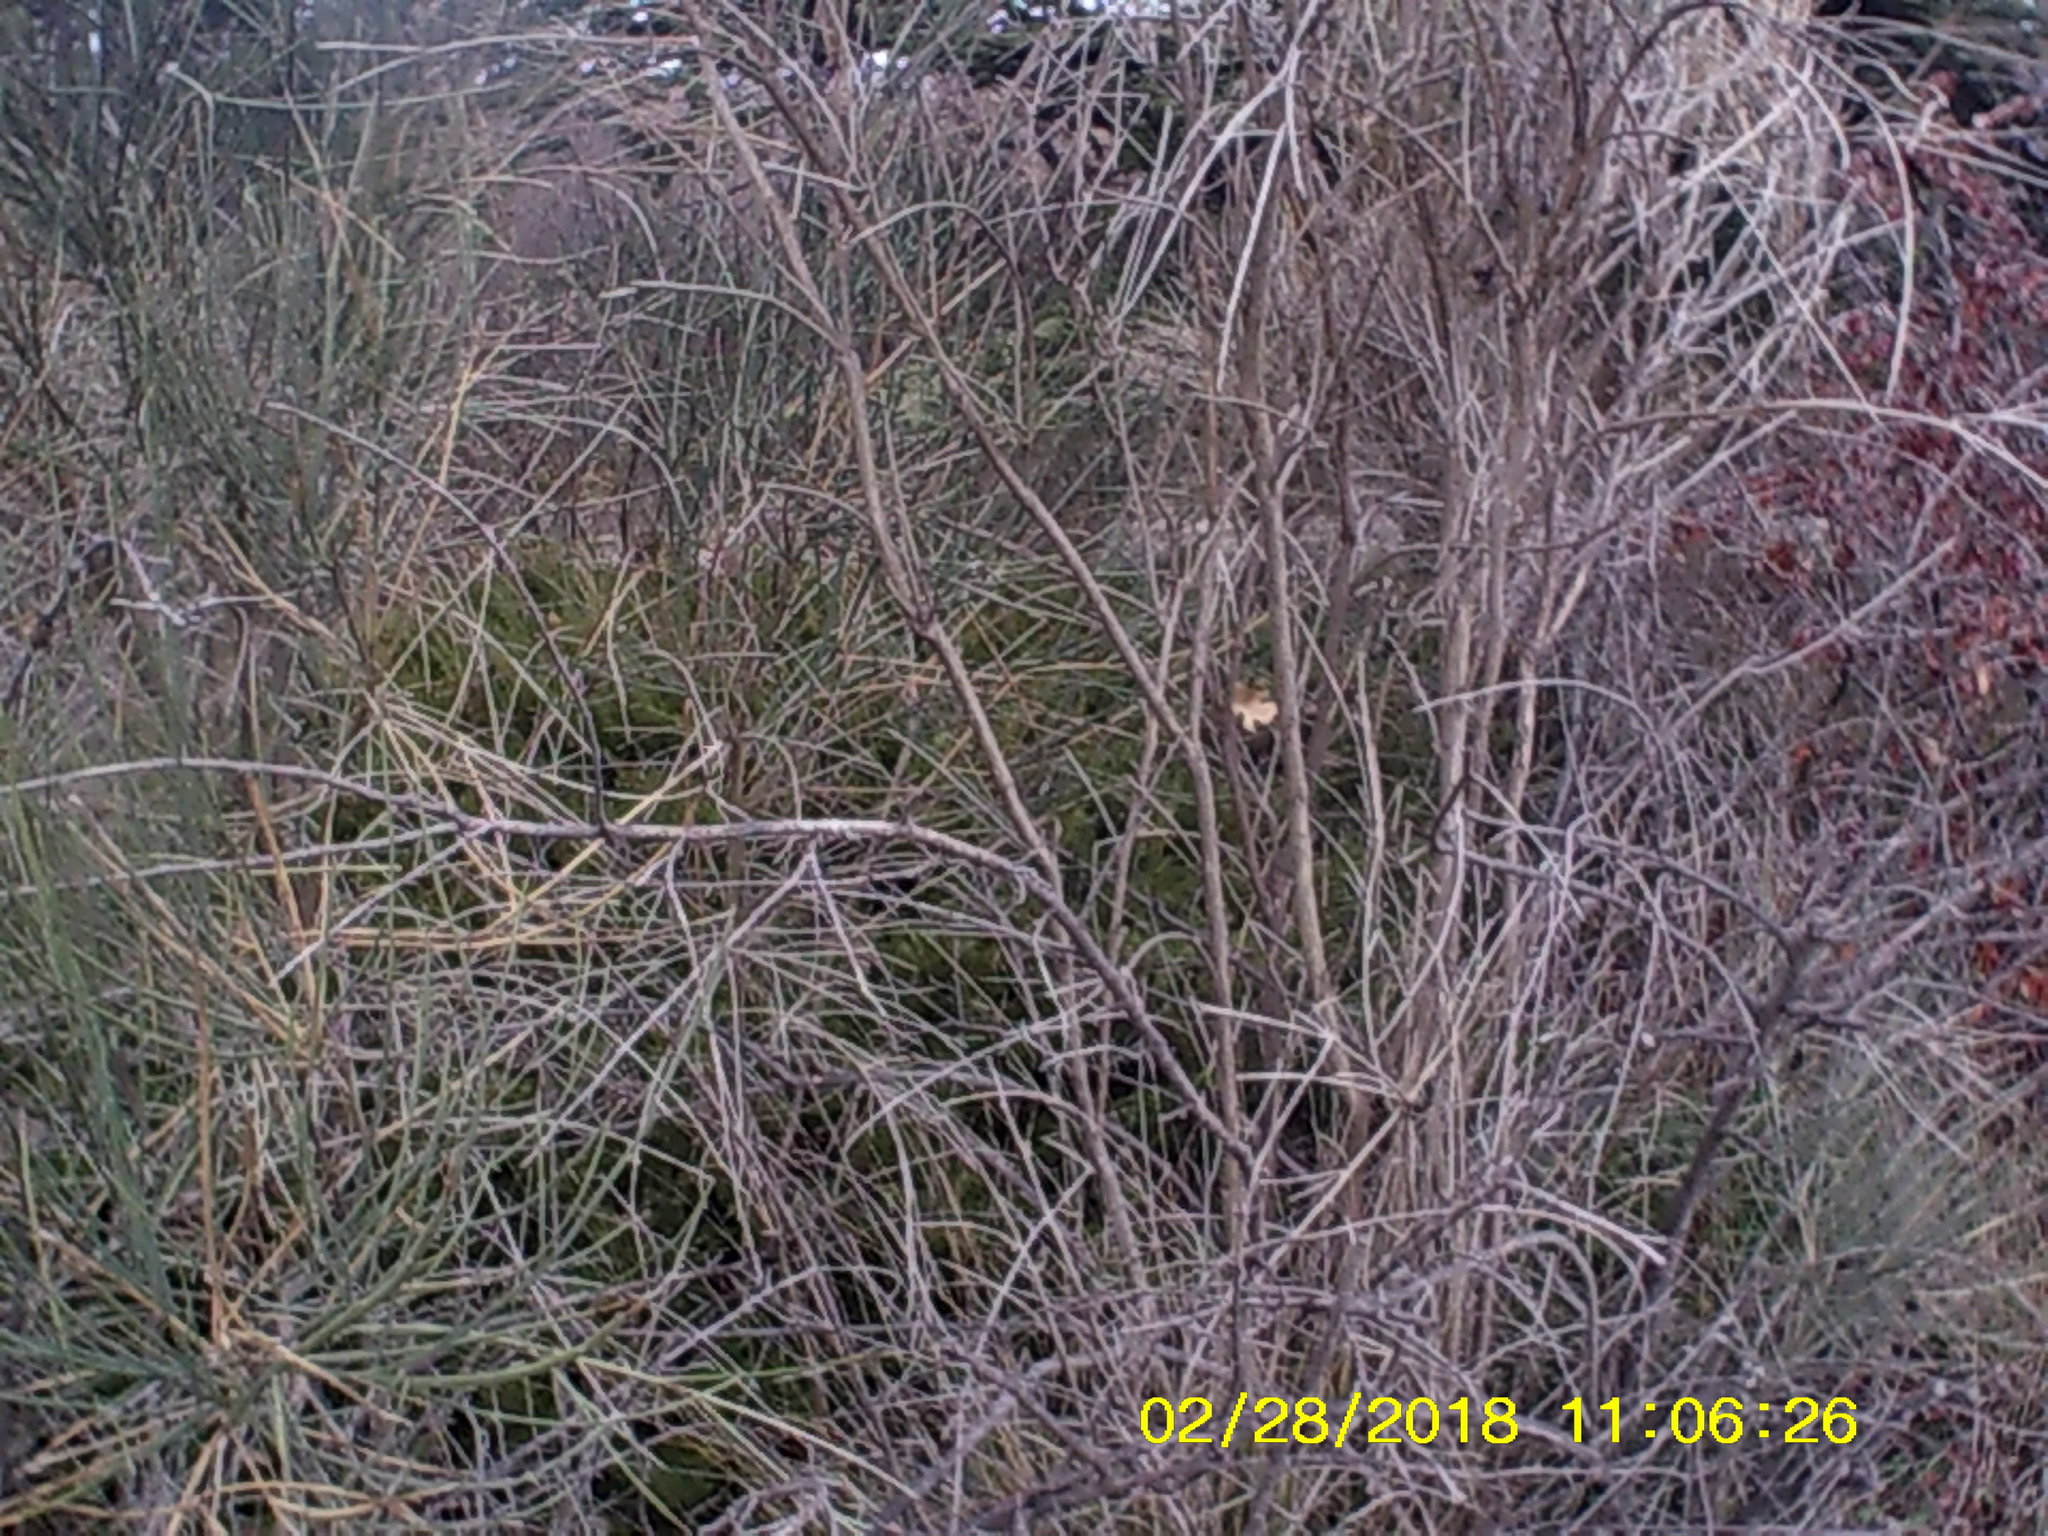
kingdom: Plantae
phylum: Tracheophyta
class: Magnoliopsida
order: Fabales
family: Fabaceae
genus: Spartium
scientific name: Spartium junceum
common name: Spanish broom
